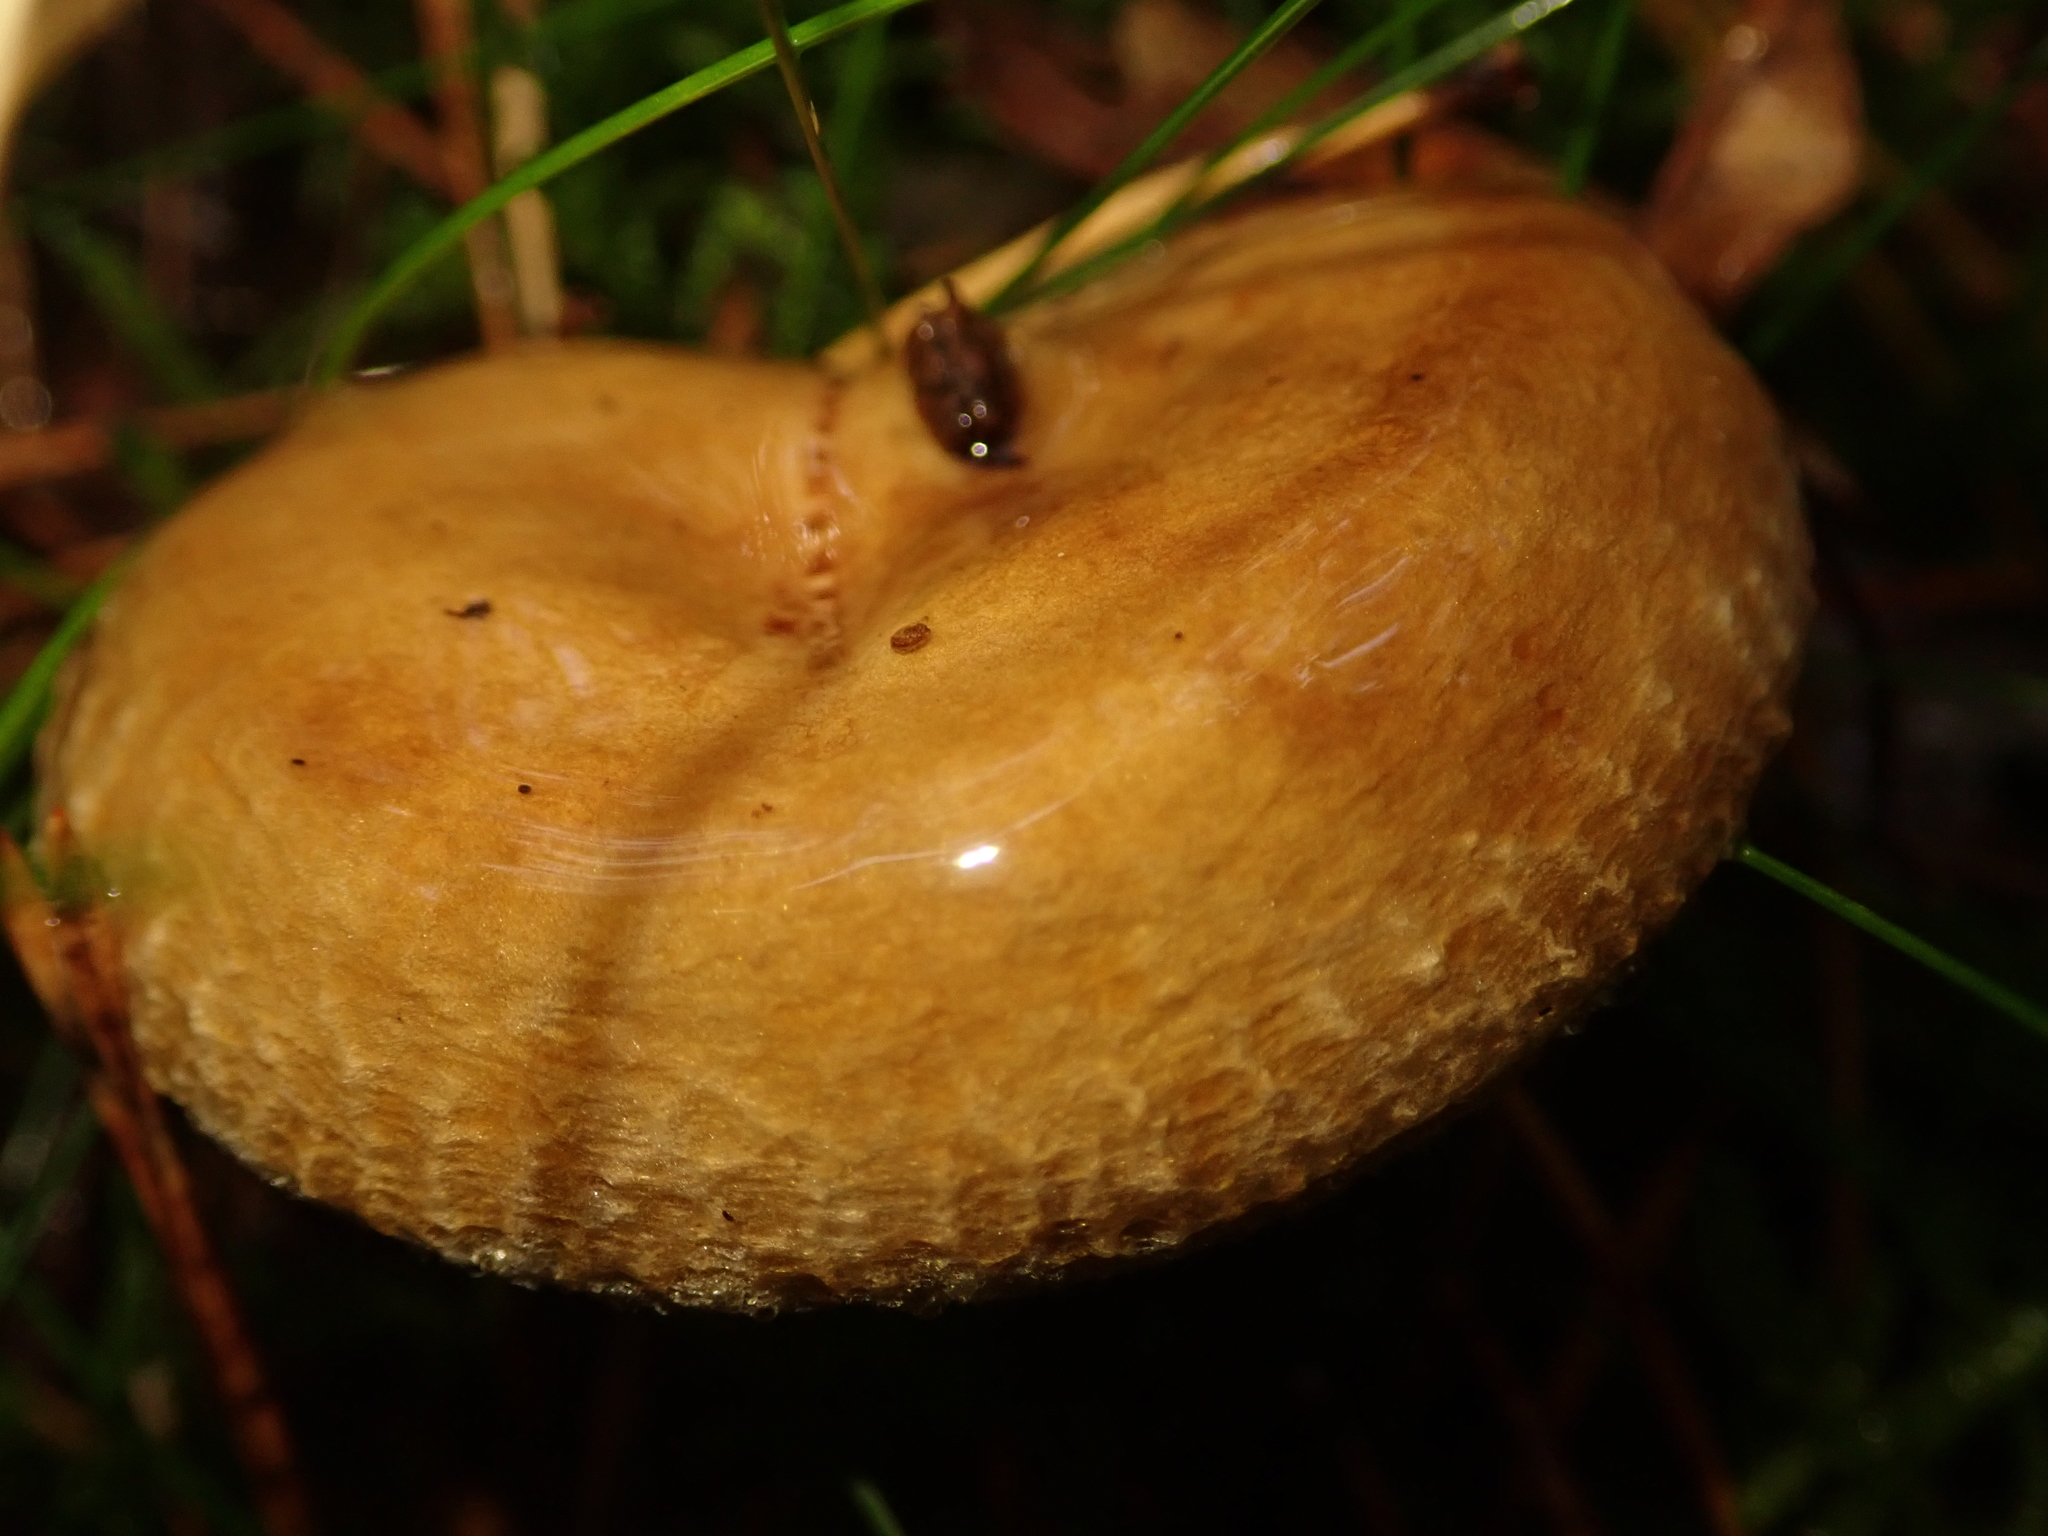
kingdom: Fungi
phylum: Basidiomycota
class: Agaricomycetes
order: Boletales
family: Paxillaceae
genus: Paxillus
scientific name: Paxillus involutus
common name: Brown roll rim
